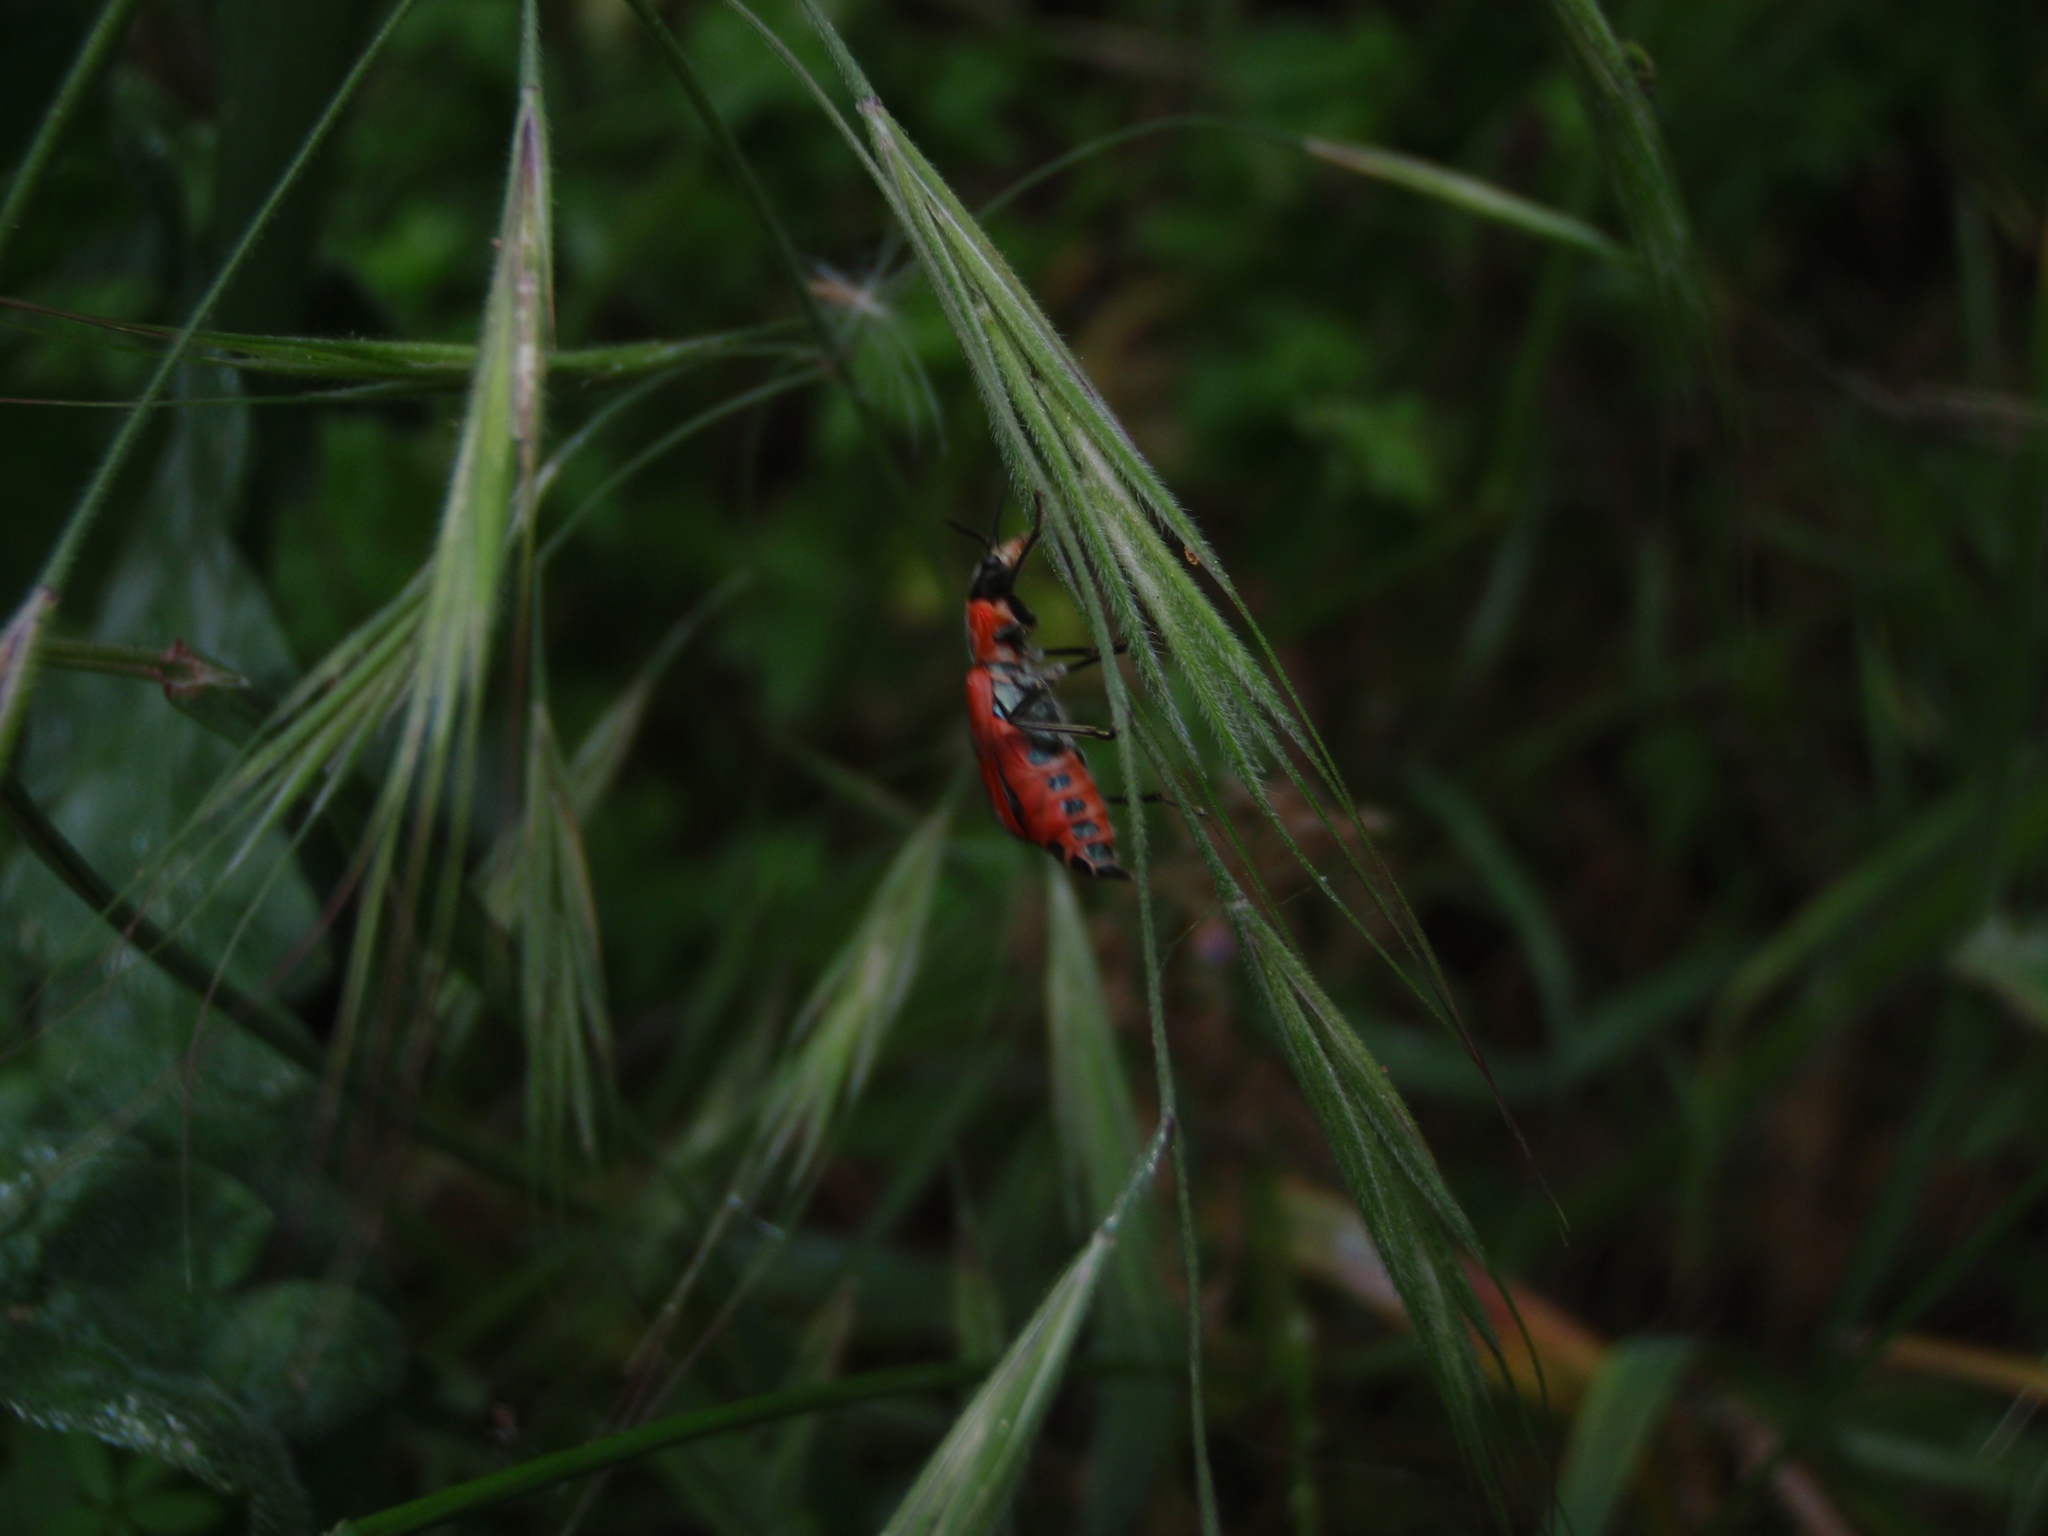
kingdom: Animalia
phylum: Arthropoda
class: Insecta
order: Coleoptera
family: Malachiidae
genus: Clanoptilus
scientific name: Clanoptilus rufus
